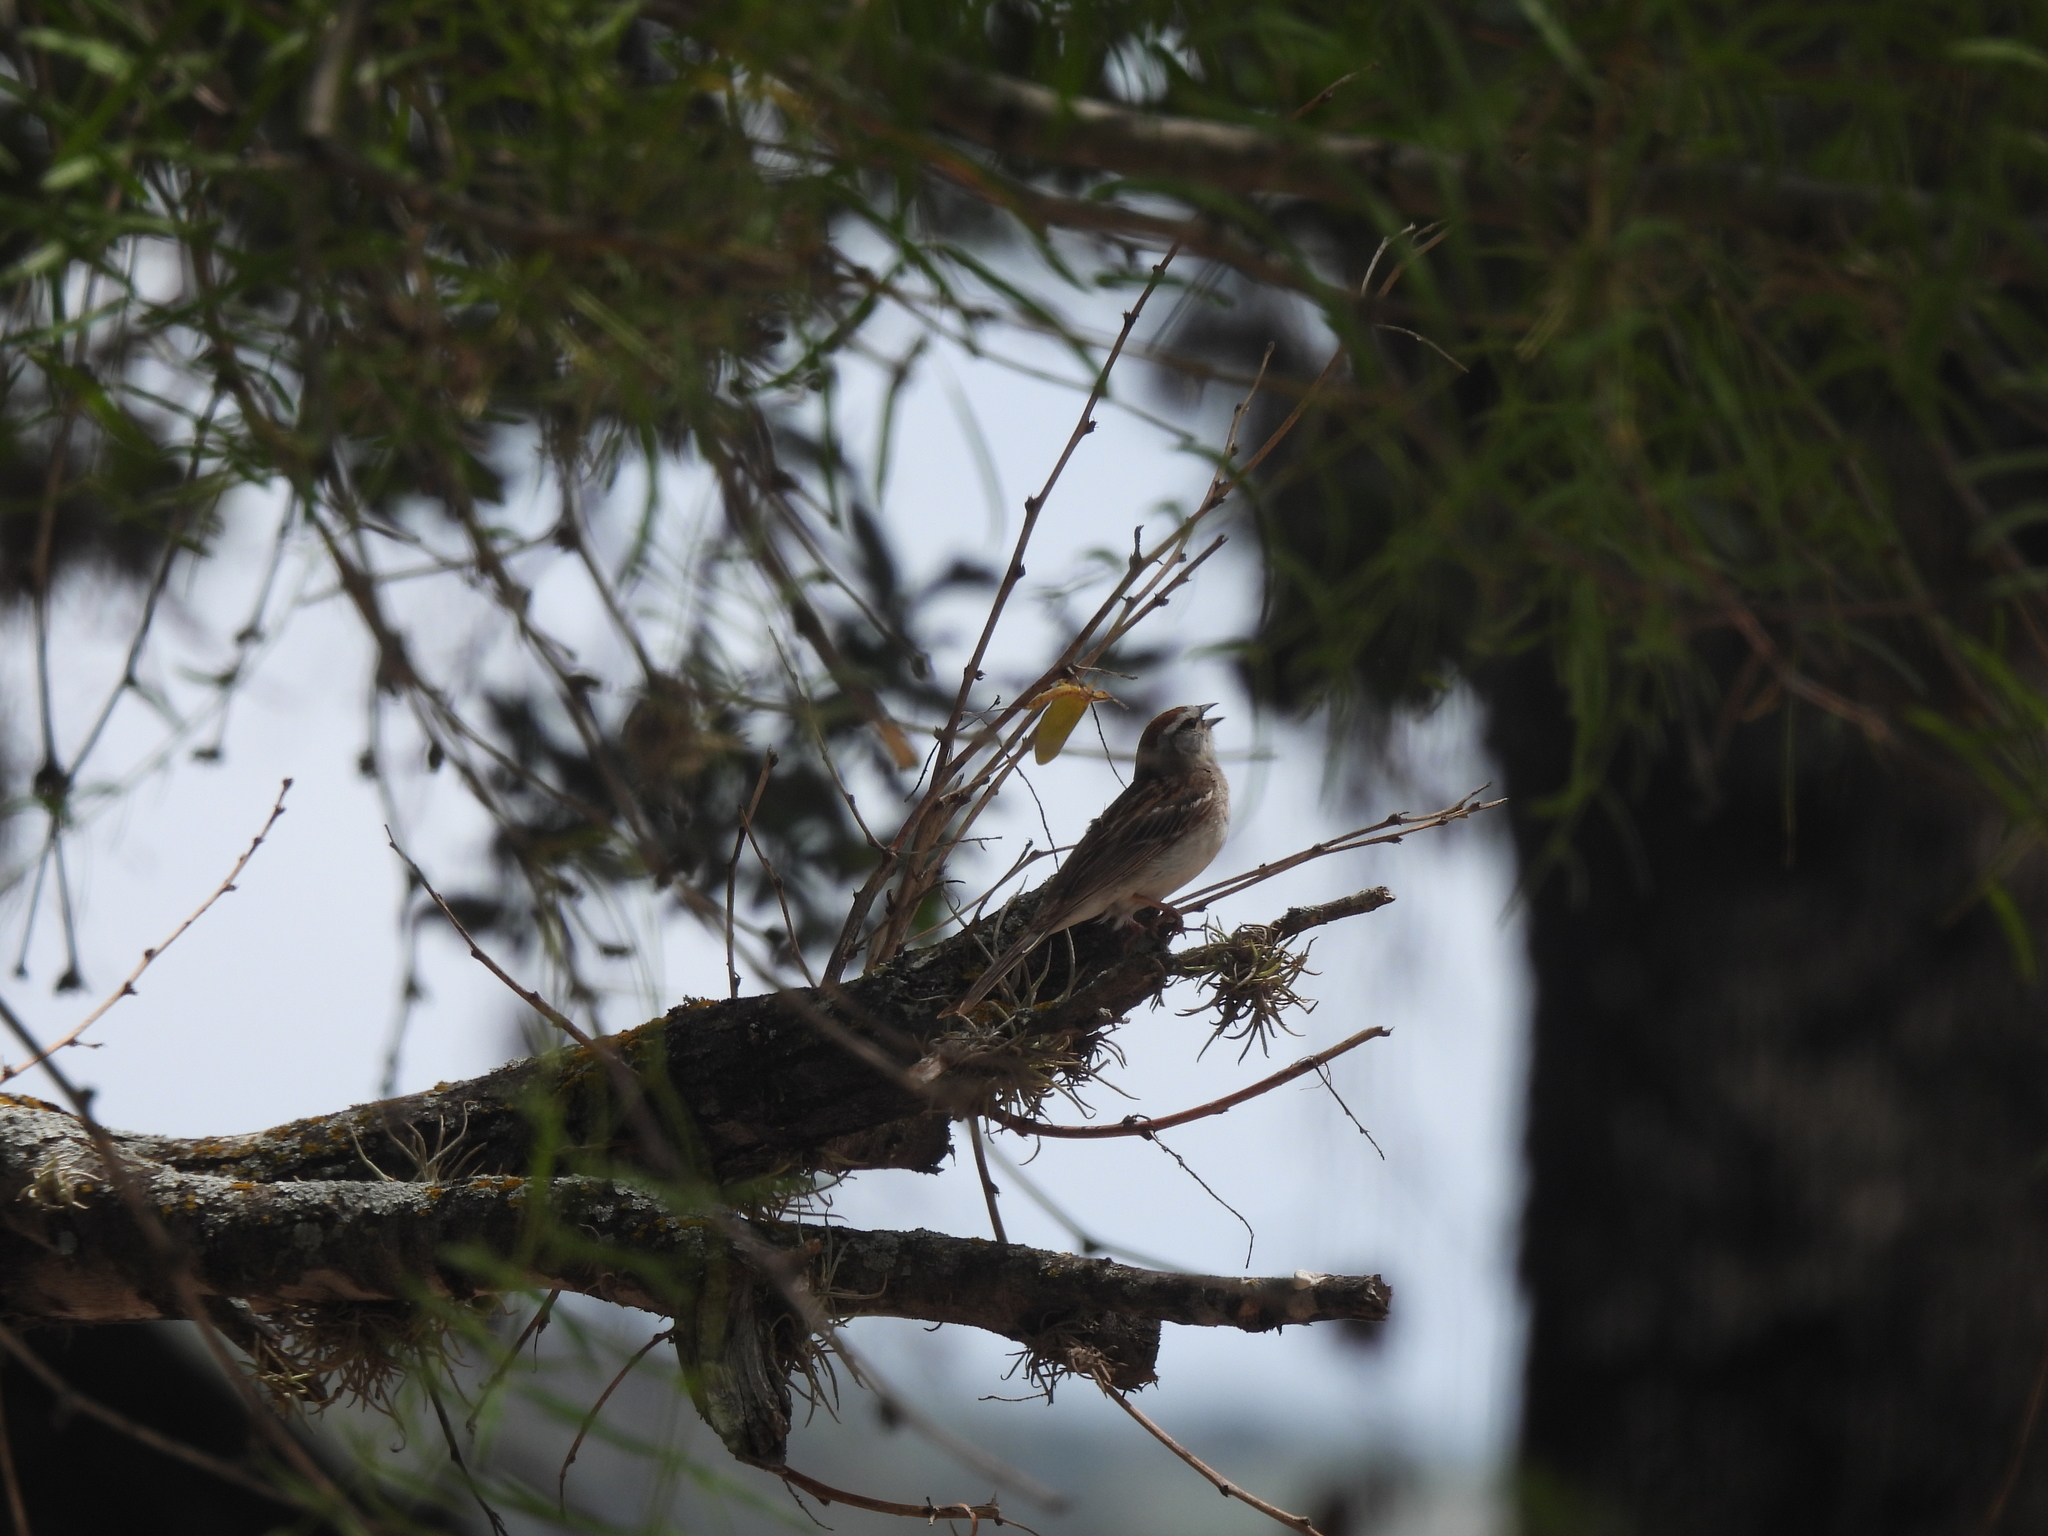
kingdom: Animalia
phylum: Chordata
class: Aves
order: Passeriformes
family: Passerellidae
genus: Spizella
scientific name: Spizella passerina
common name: Chipping sparrow
